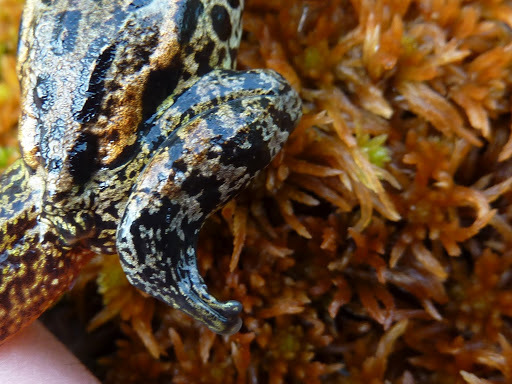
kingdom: Animalia
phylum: Chordata
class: Amphibia
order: Anura
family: Ranidae
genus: Lithobates
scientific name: Lithobates sylvaticus
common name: Wood frog
